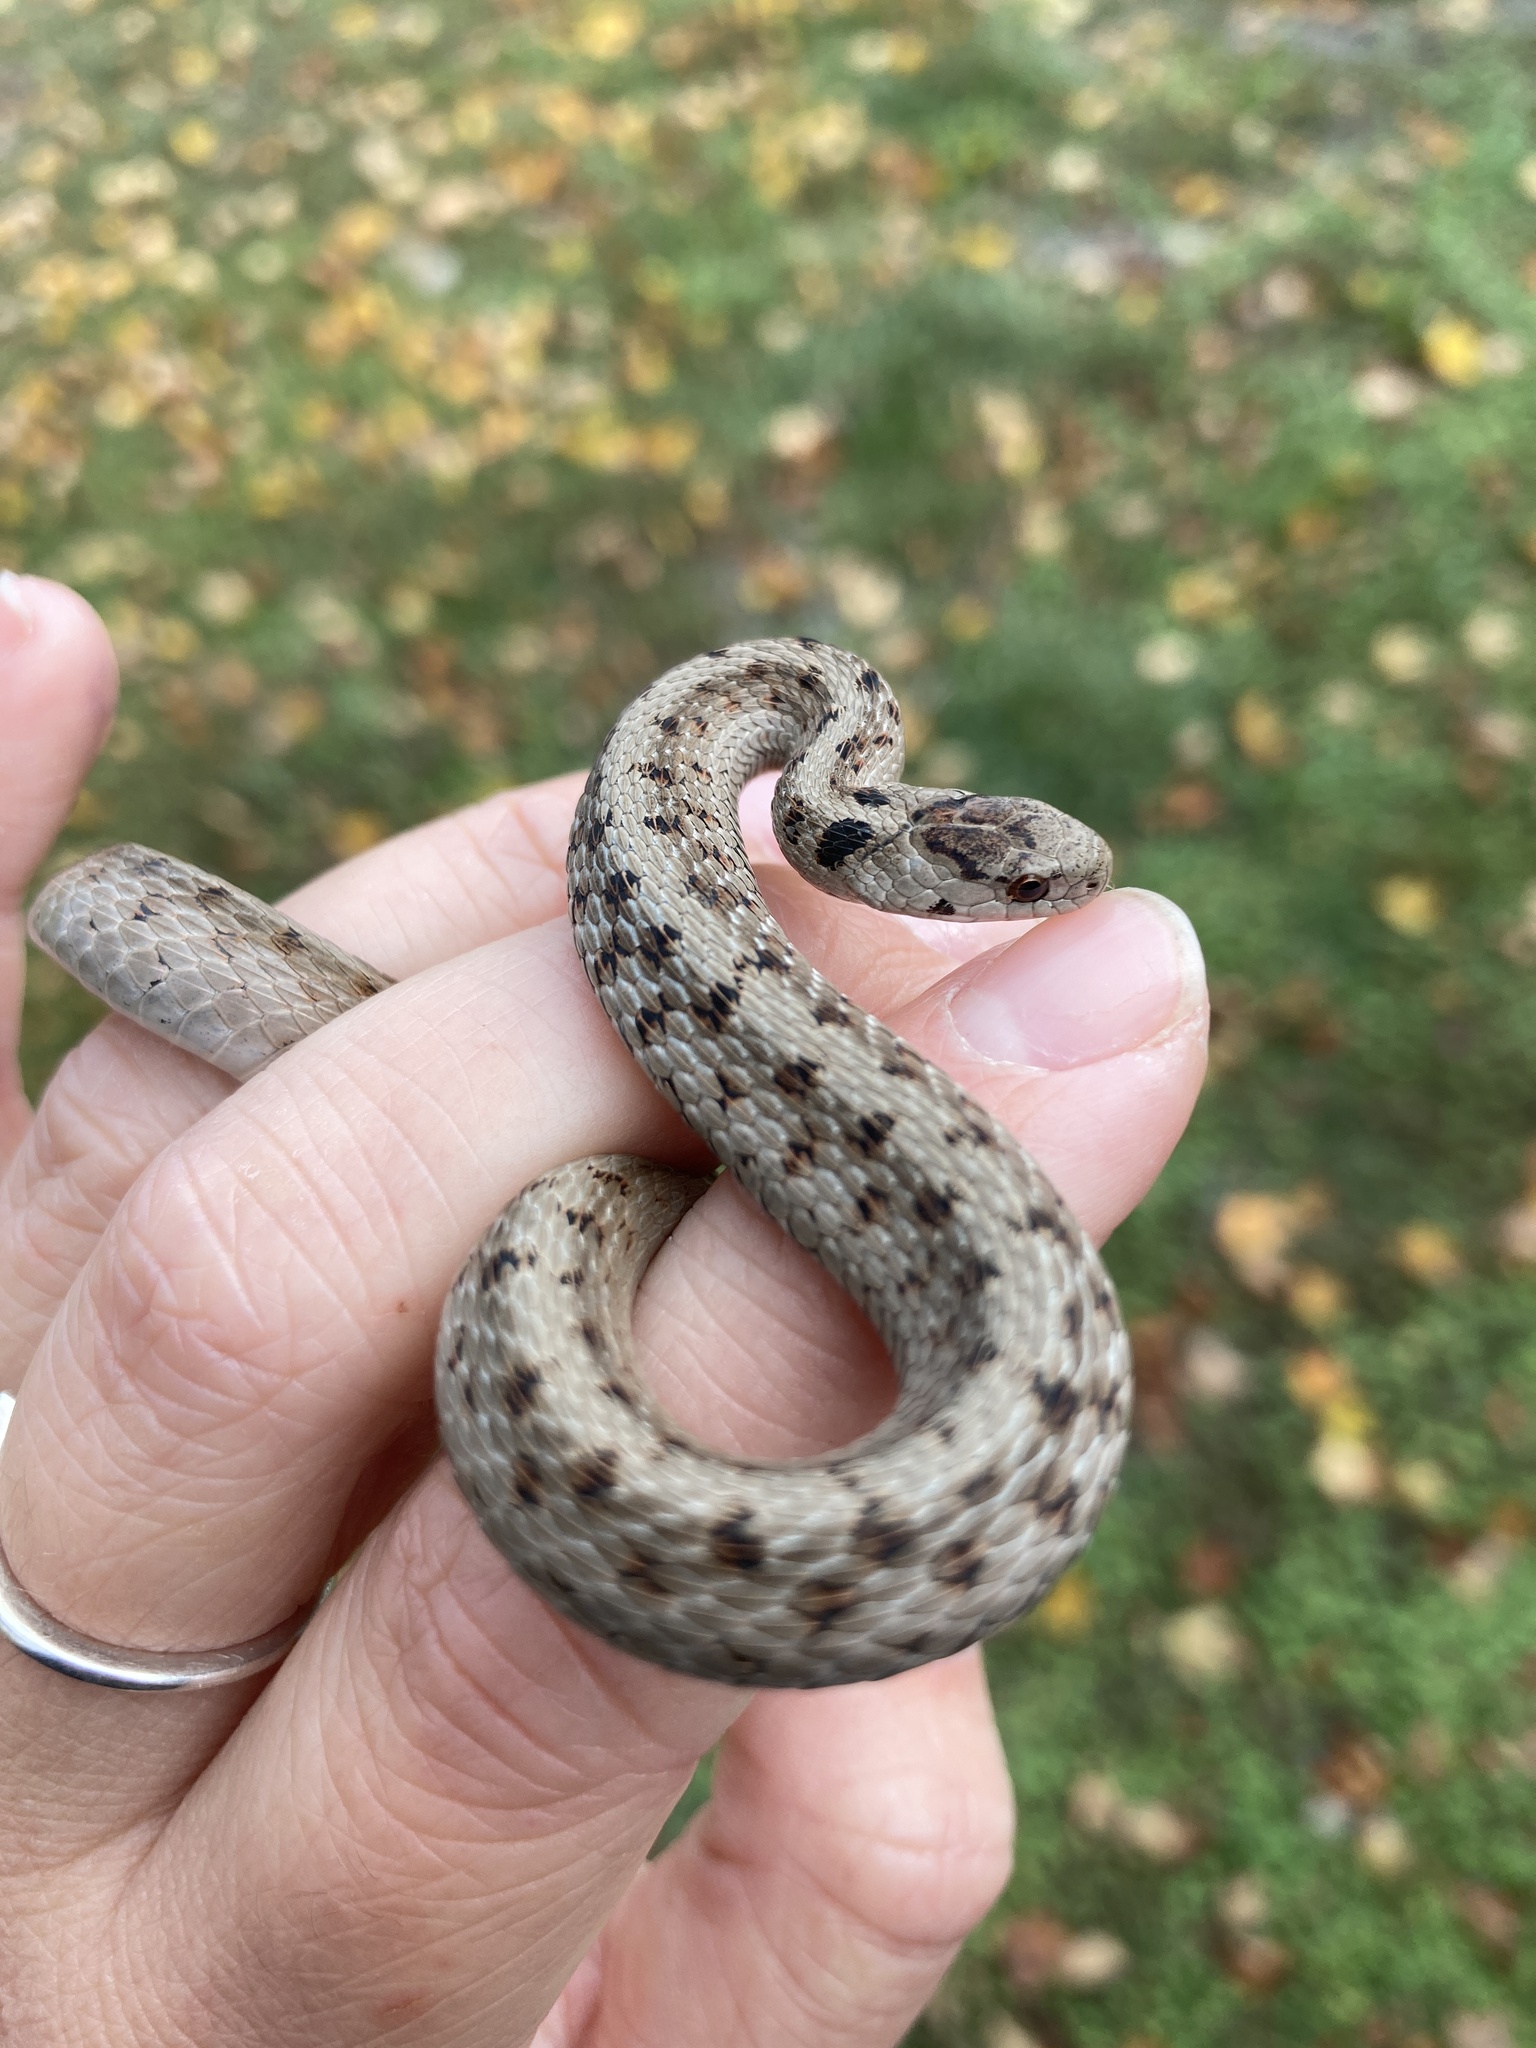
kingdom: Animalia
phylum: Chordata
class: Squamata
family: Colubridae
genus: Storeria
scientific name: Storeria dekayi
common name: (dekay’s) brown snake
